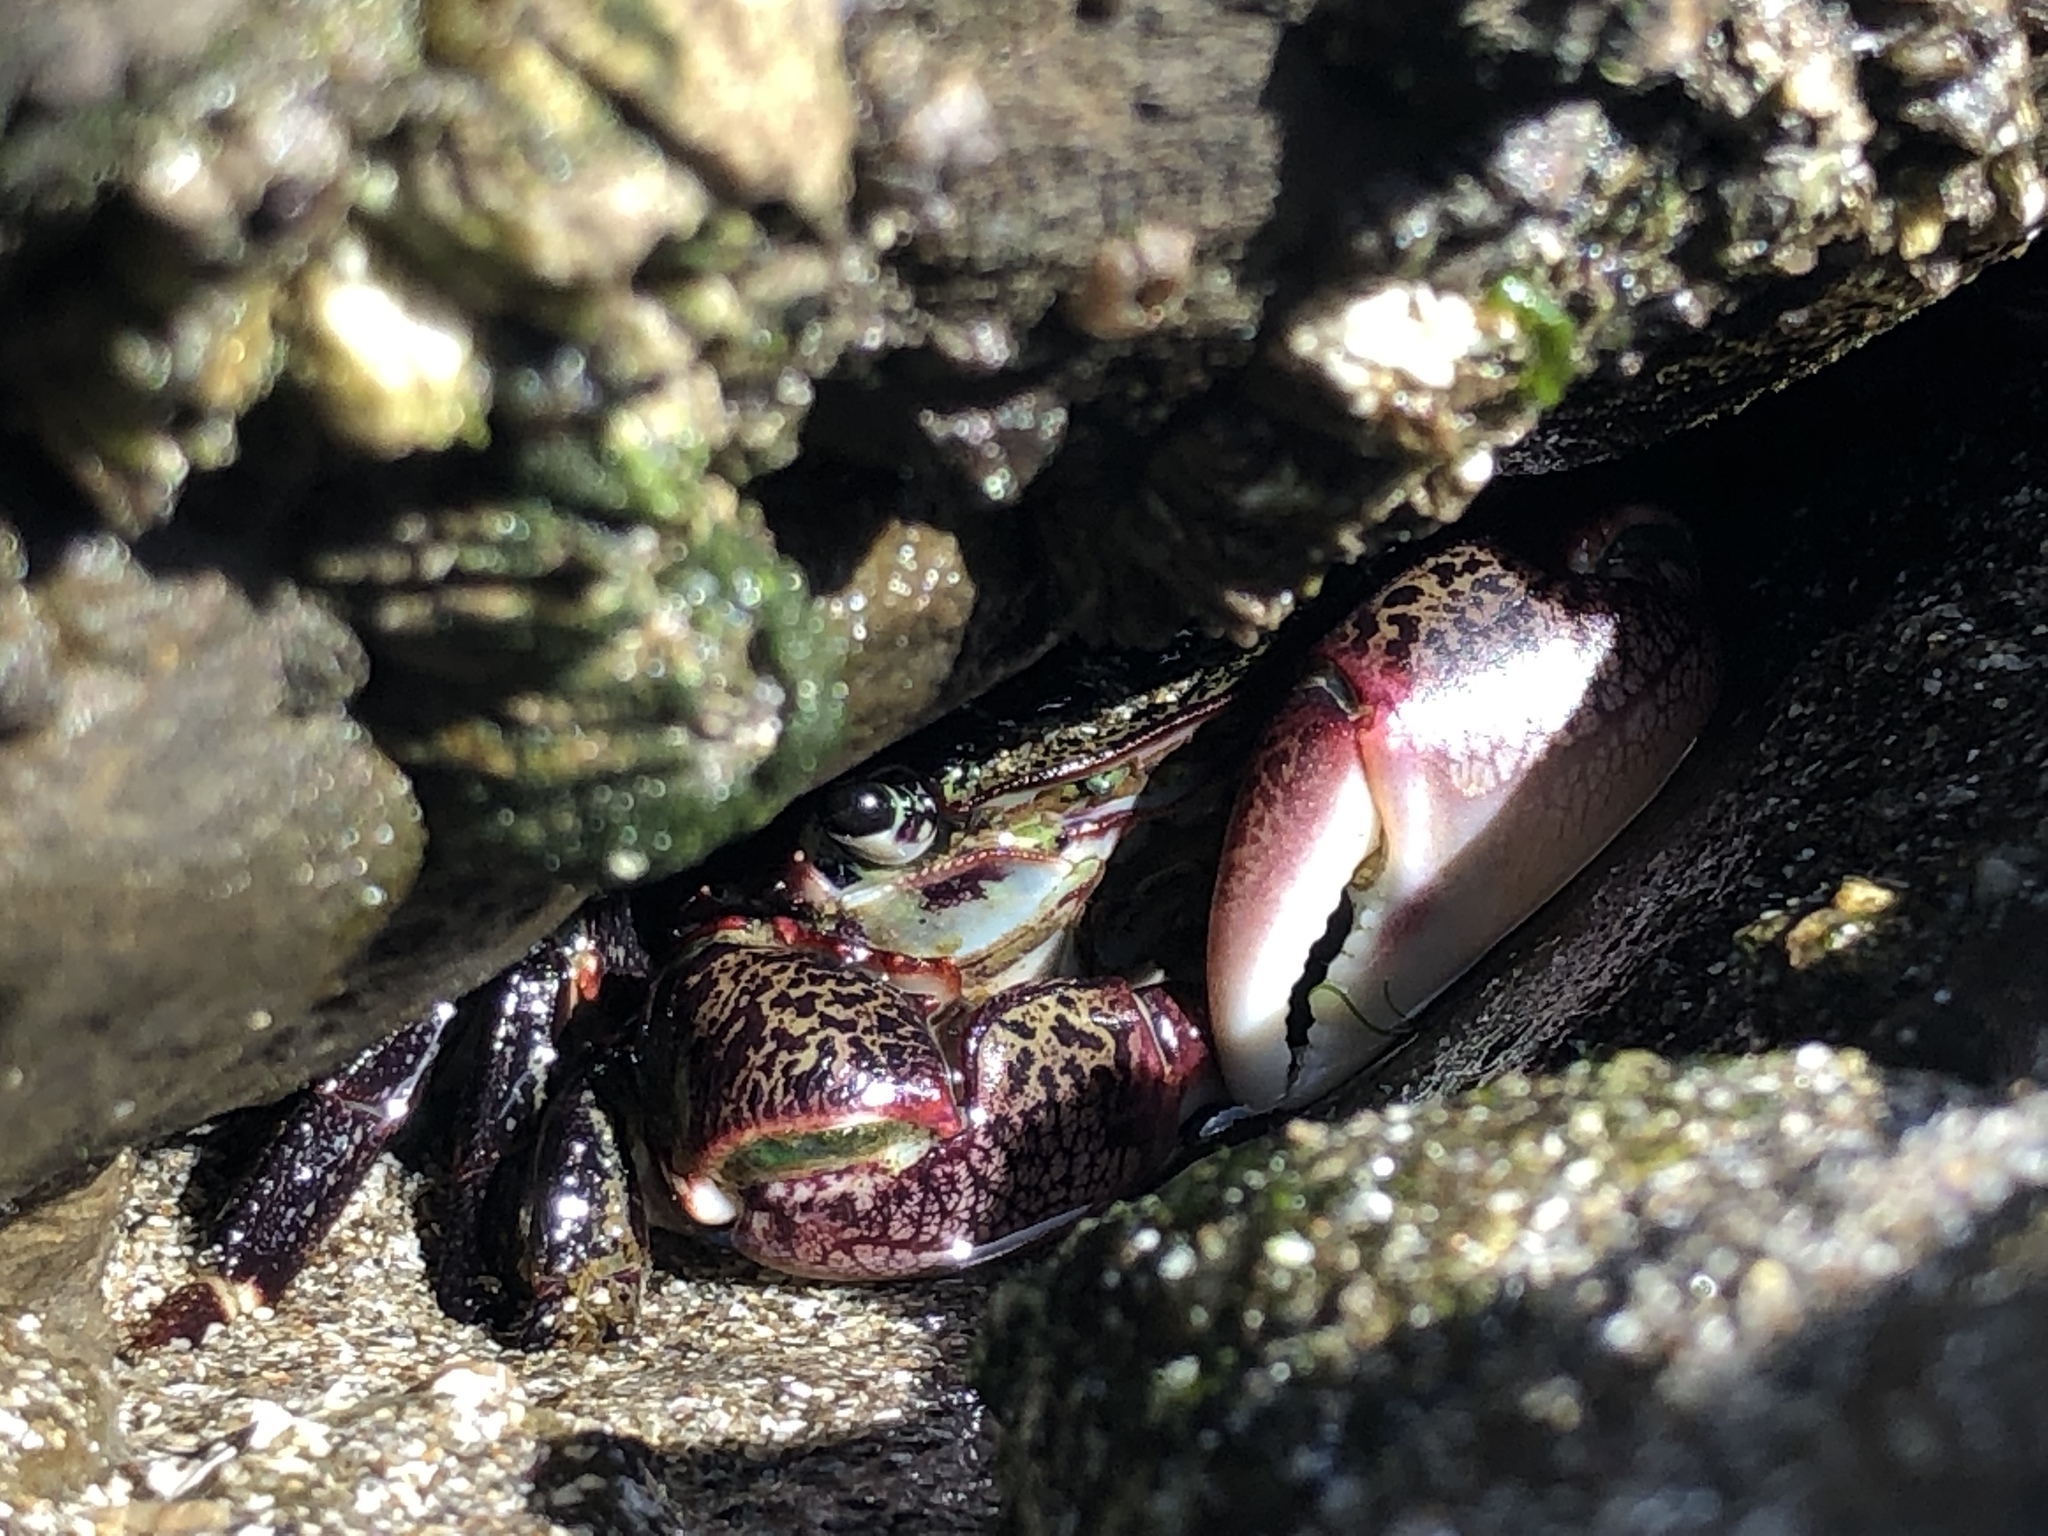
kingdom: Animalia
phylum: Arthropoda
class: Malacostraca
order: Decapoda
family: Grapsidae
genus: Pachygrapsus
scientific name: Pachygrapsus crassipes
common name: Striped shore crab
